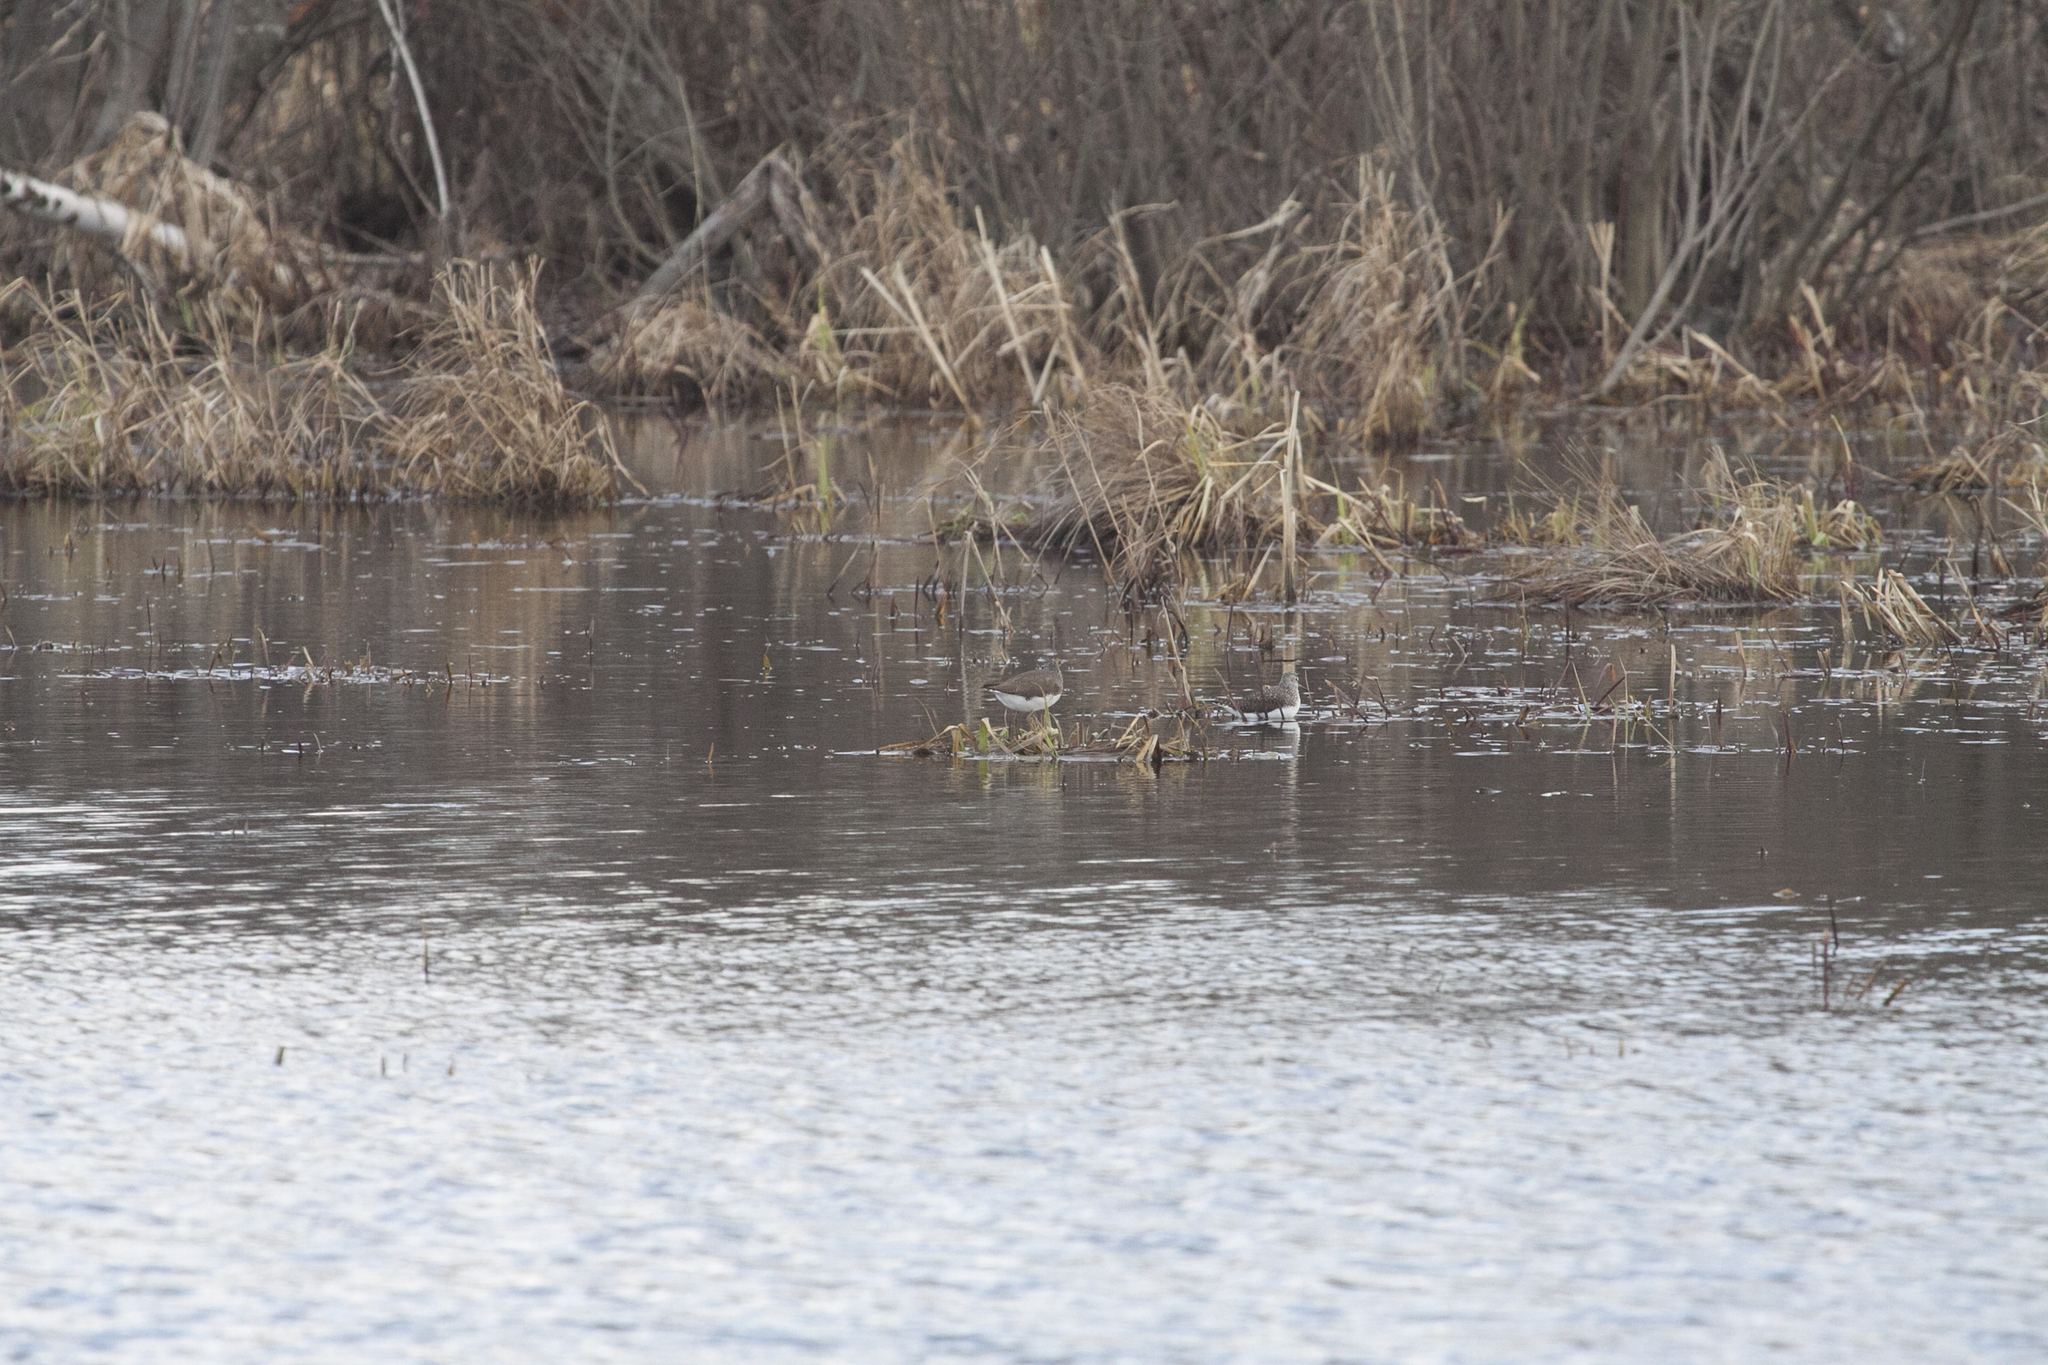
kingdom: Animalia
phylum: Chordata
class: Aves
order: Charadriiformes
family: Scolopacidae
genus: Tringa
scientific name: Tringa ochropus
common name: Green sandpiper
